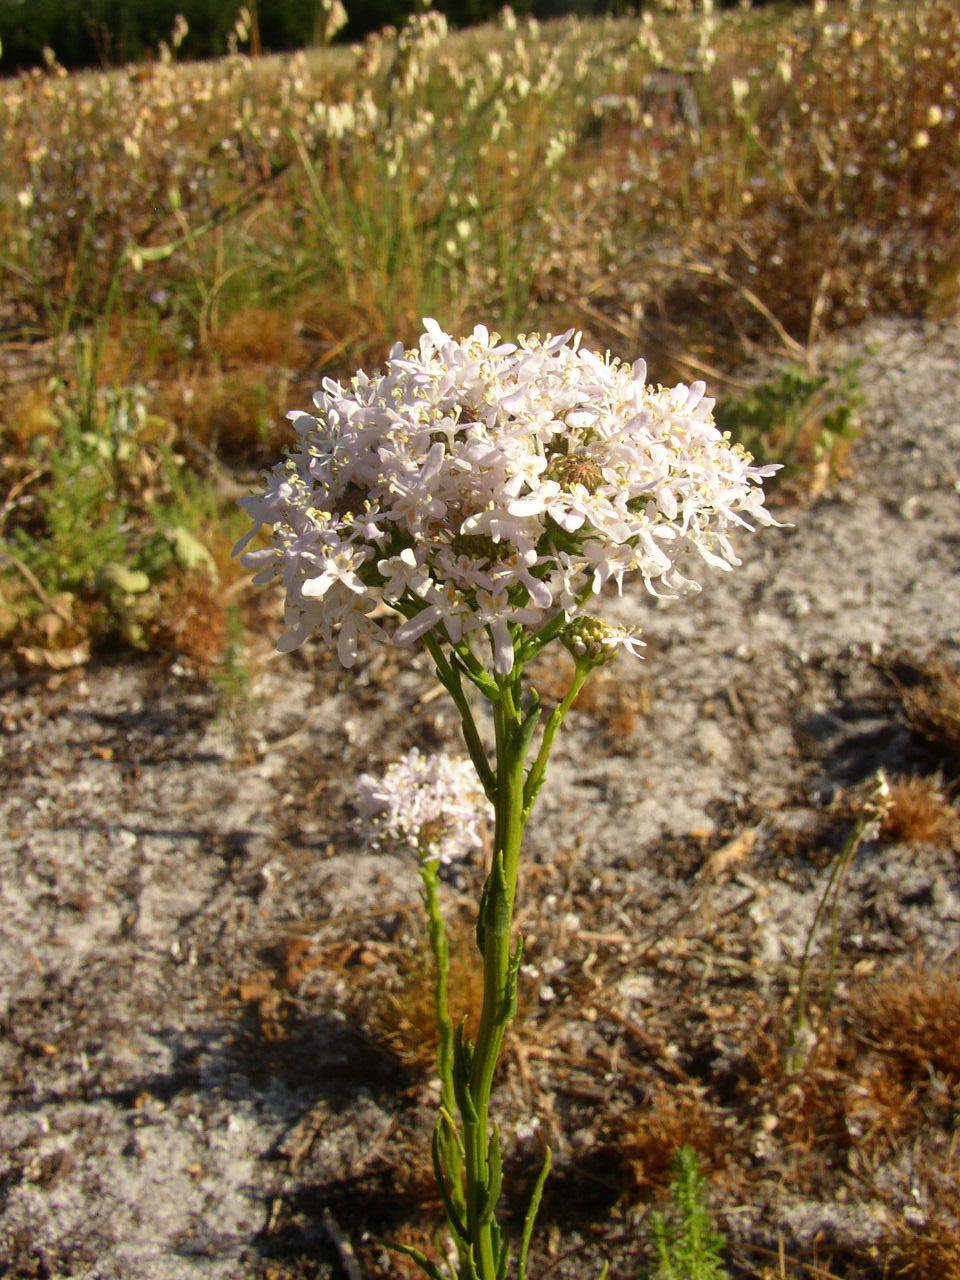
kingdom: Plantae
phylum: Tracheophyta
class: Magnoliopsida
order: Lamiales
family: Scrophulariaceae
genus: Pseudoselago
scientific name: Pseudoselago spuria
